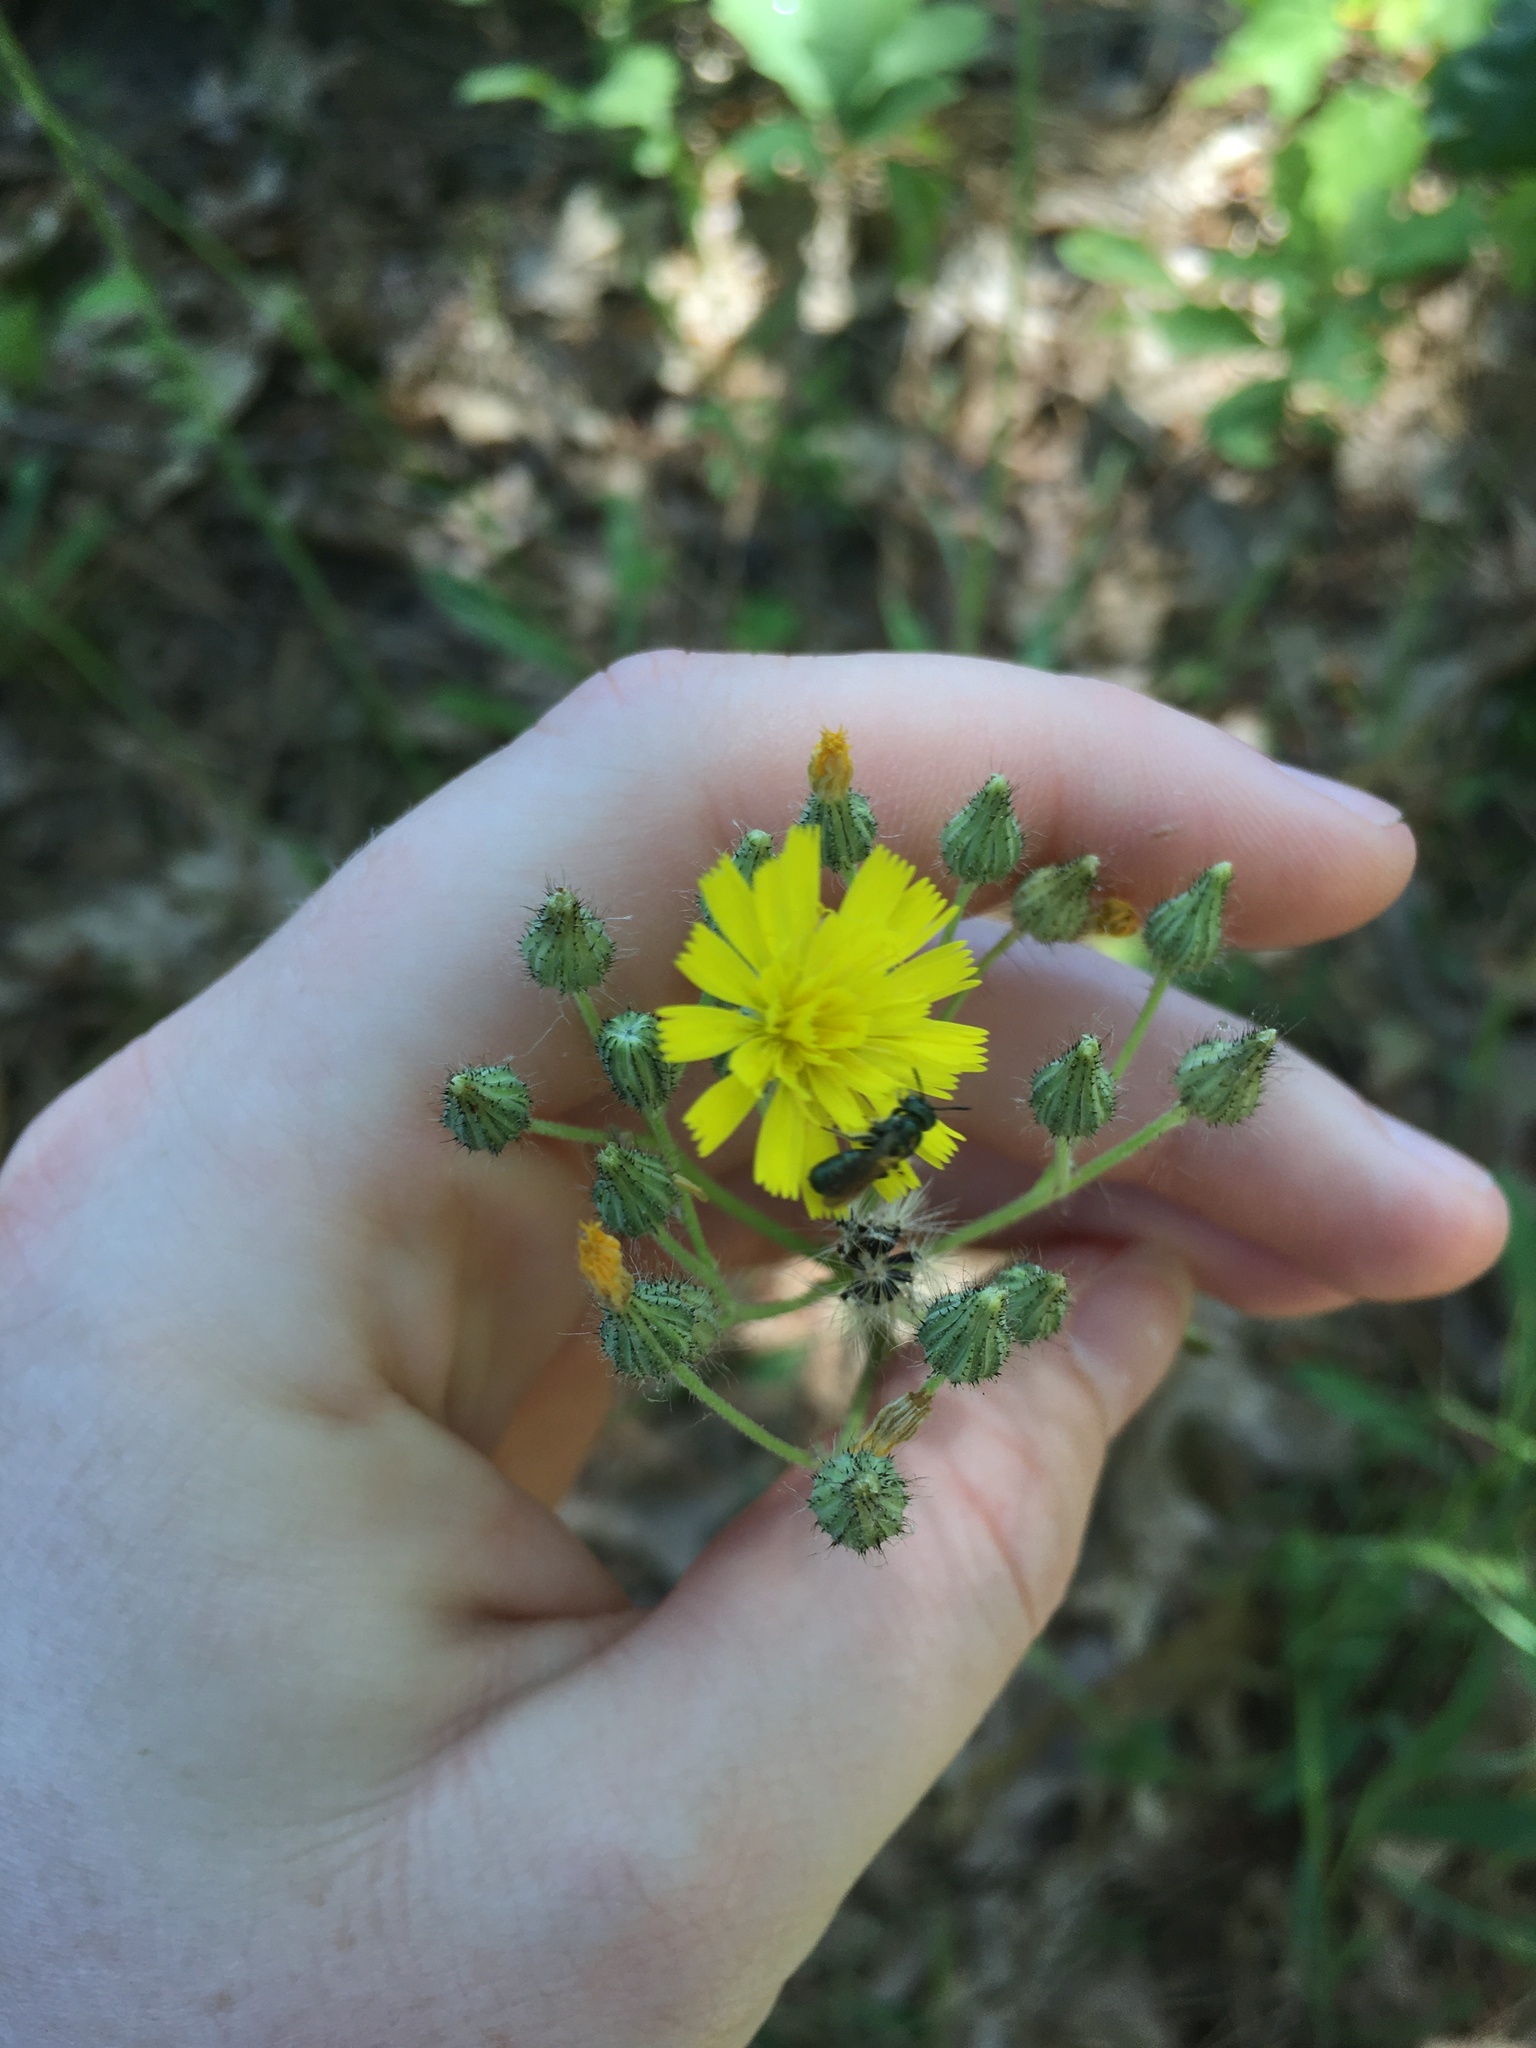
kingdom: Animalia
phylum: Arthropoda
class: Insecta
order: Hymenoptera
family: Apidae
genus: Zadontomerus
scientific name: Zadontomerus
